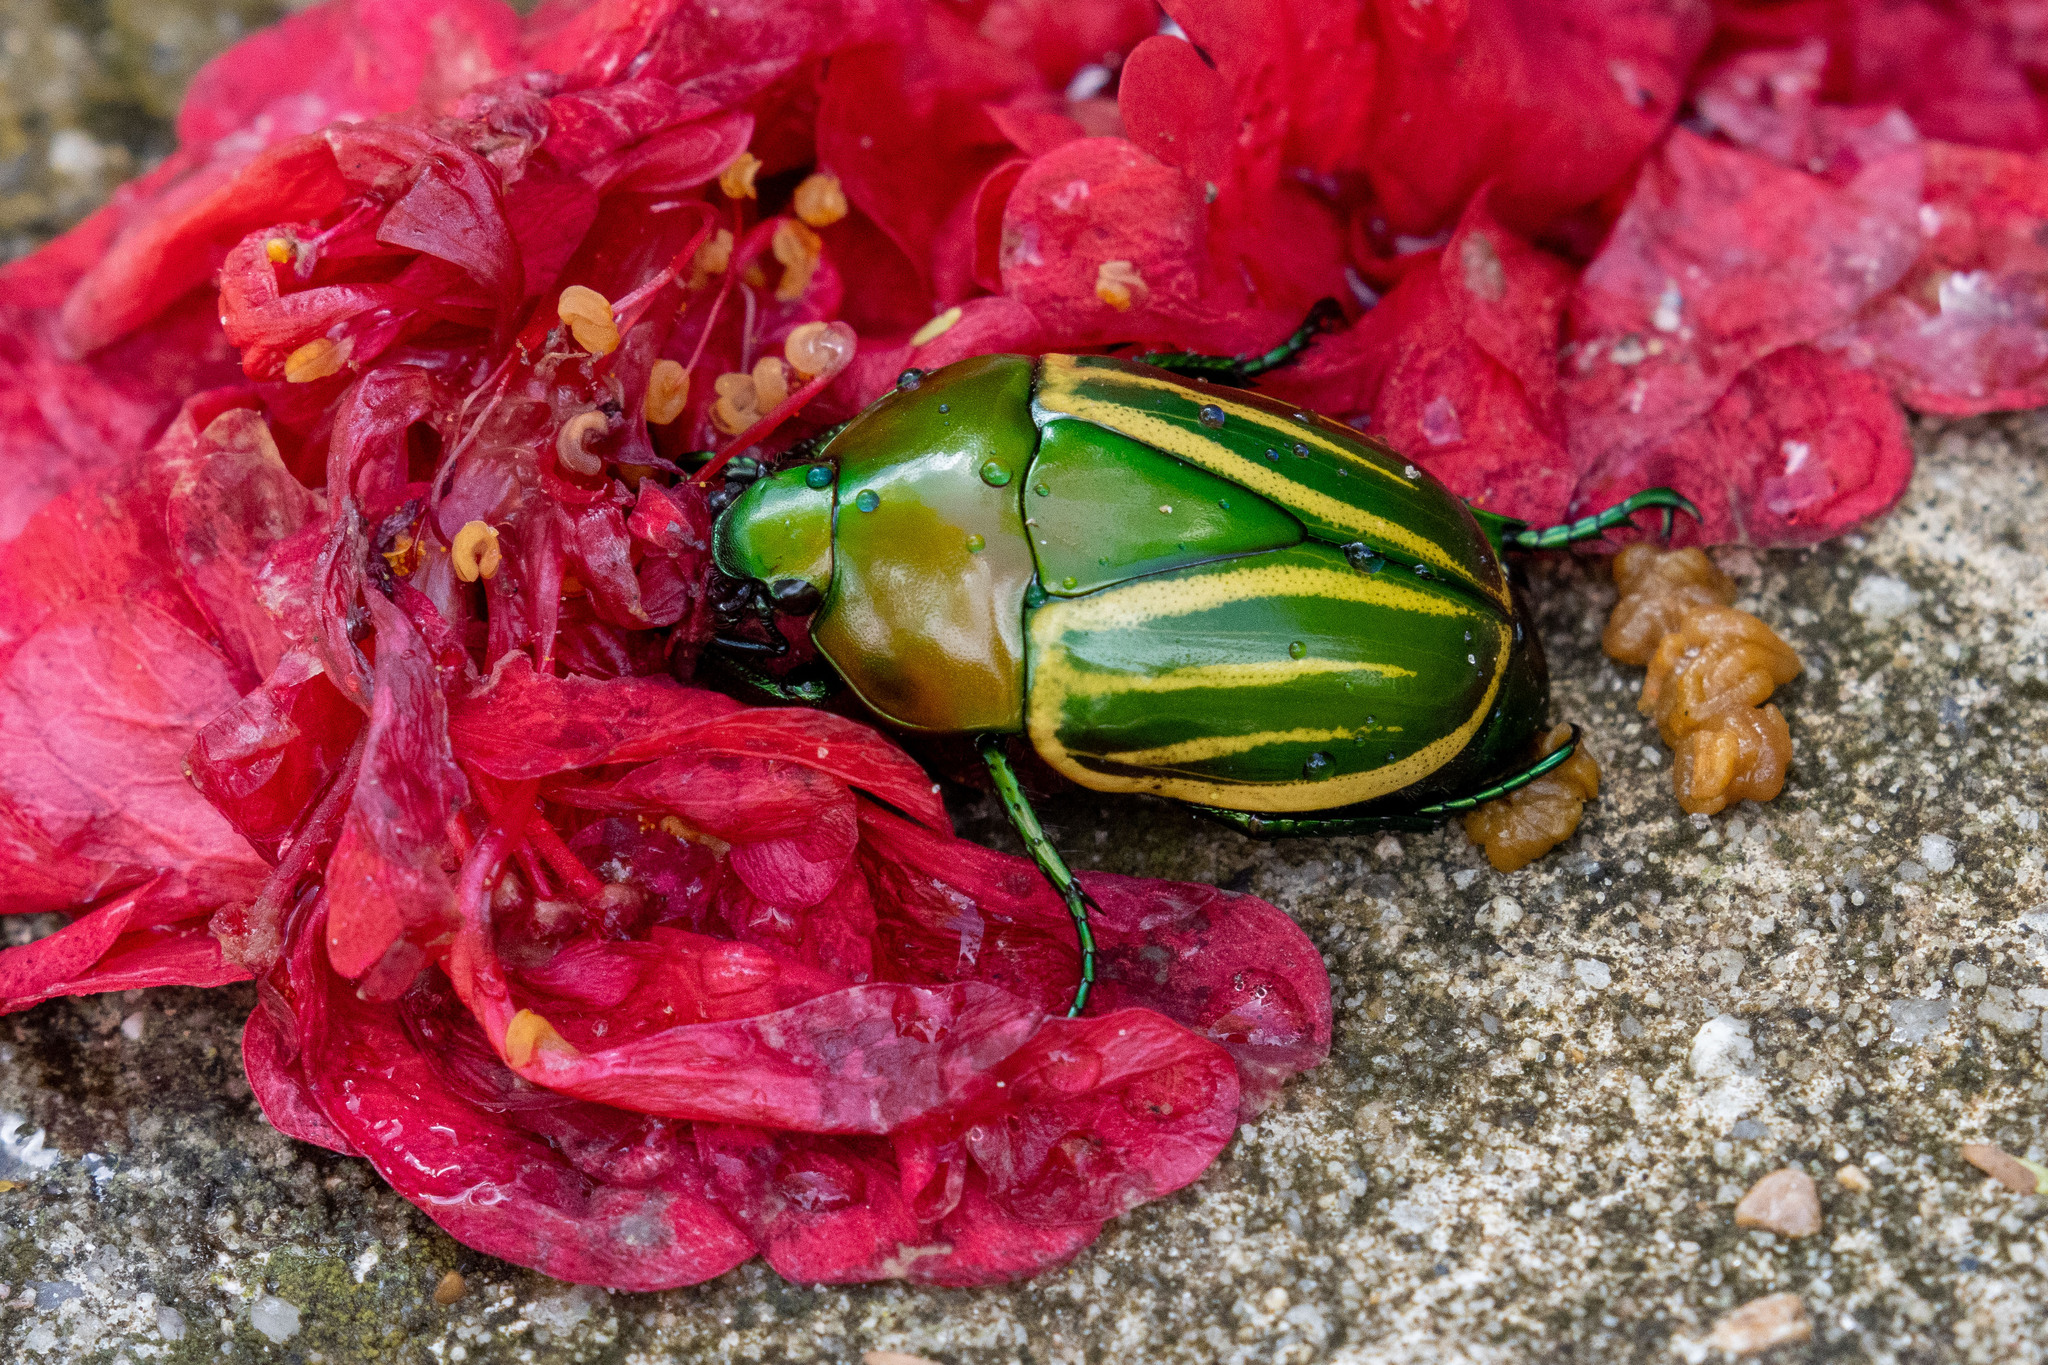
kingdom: Animalia
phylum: Arthropoda
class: Insecta
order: Coleoptera
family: Scarabaeidae
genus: Macraspis
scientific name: Macraspis festiva
